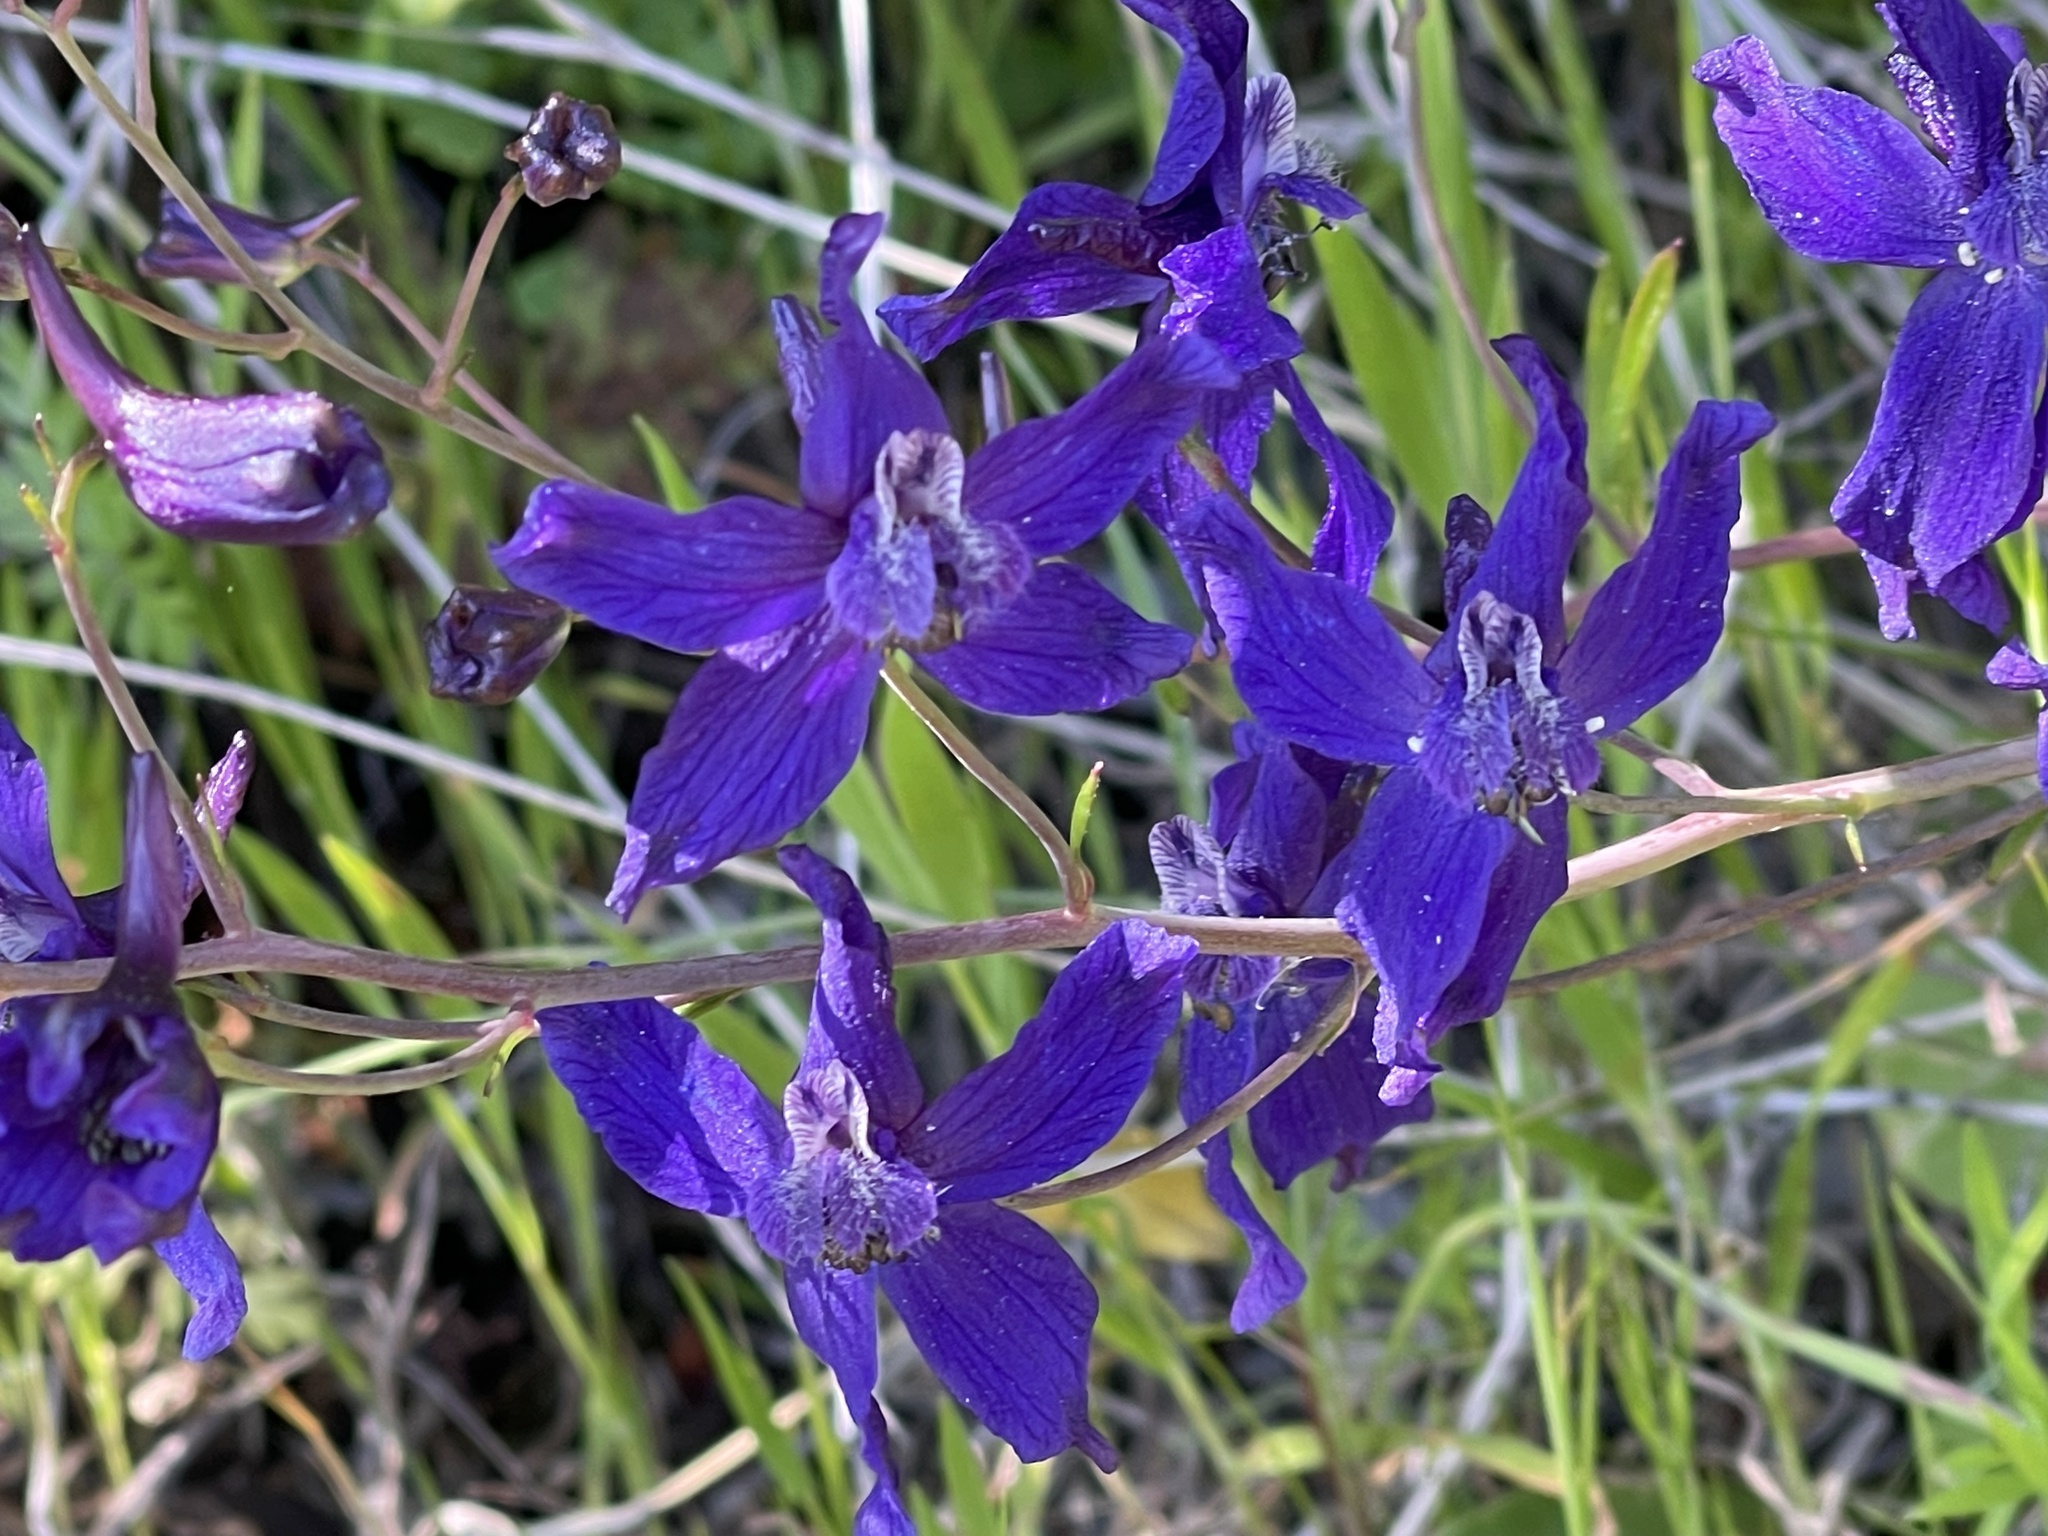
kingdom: Plantae
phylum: Tracheophyta
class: Magnoliopsida
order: Ranunculales
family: Ranunculaceae
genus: Delphinium
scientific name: Delphinium patens
